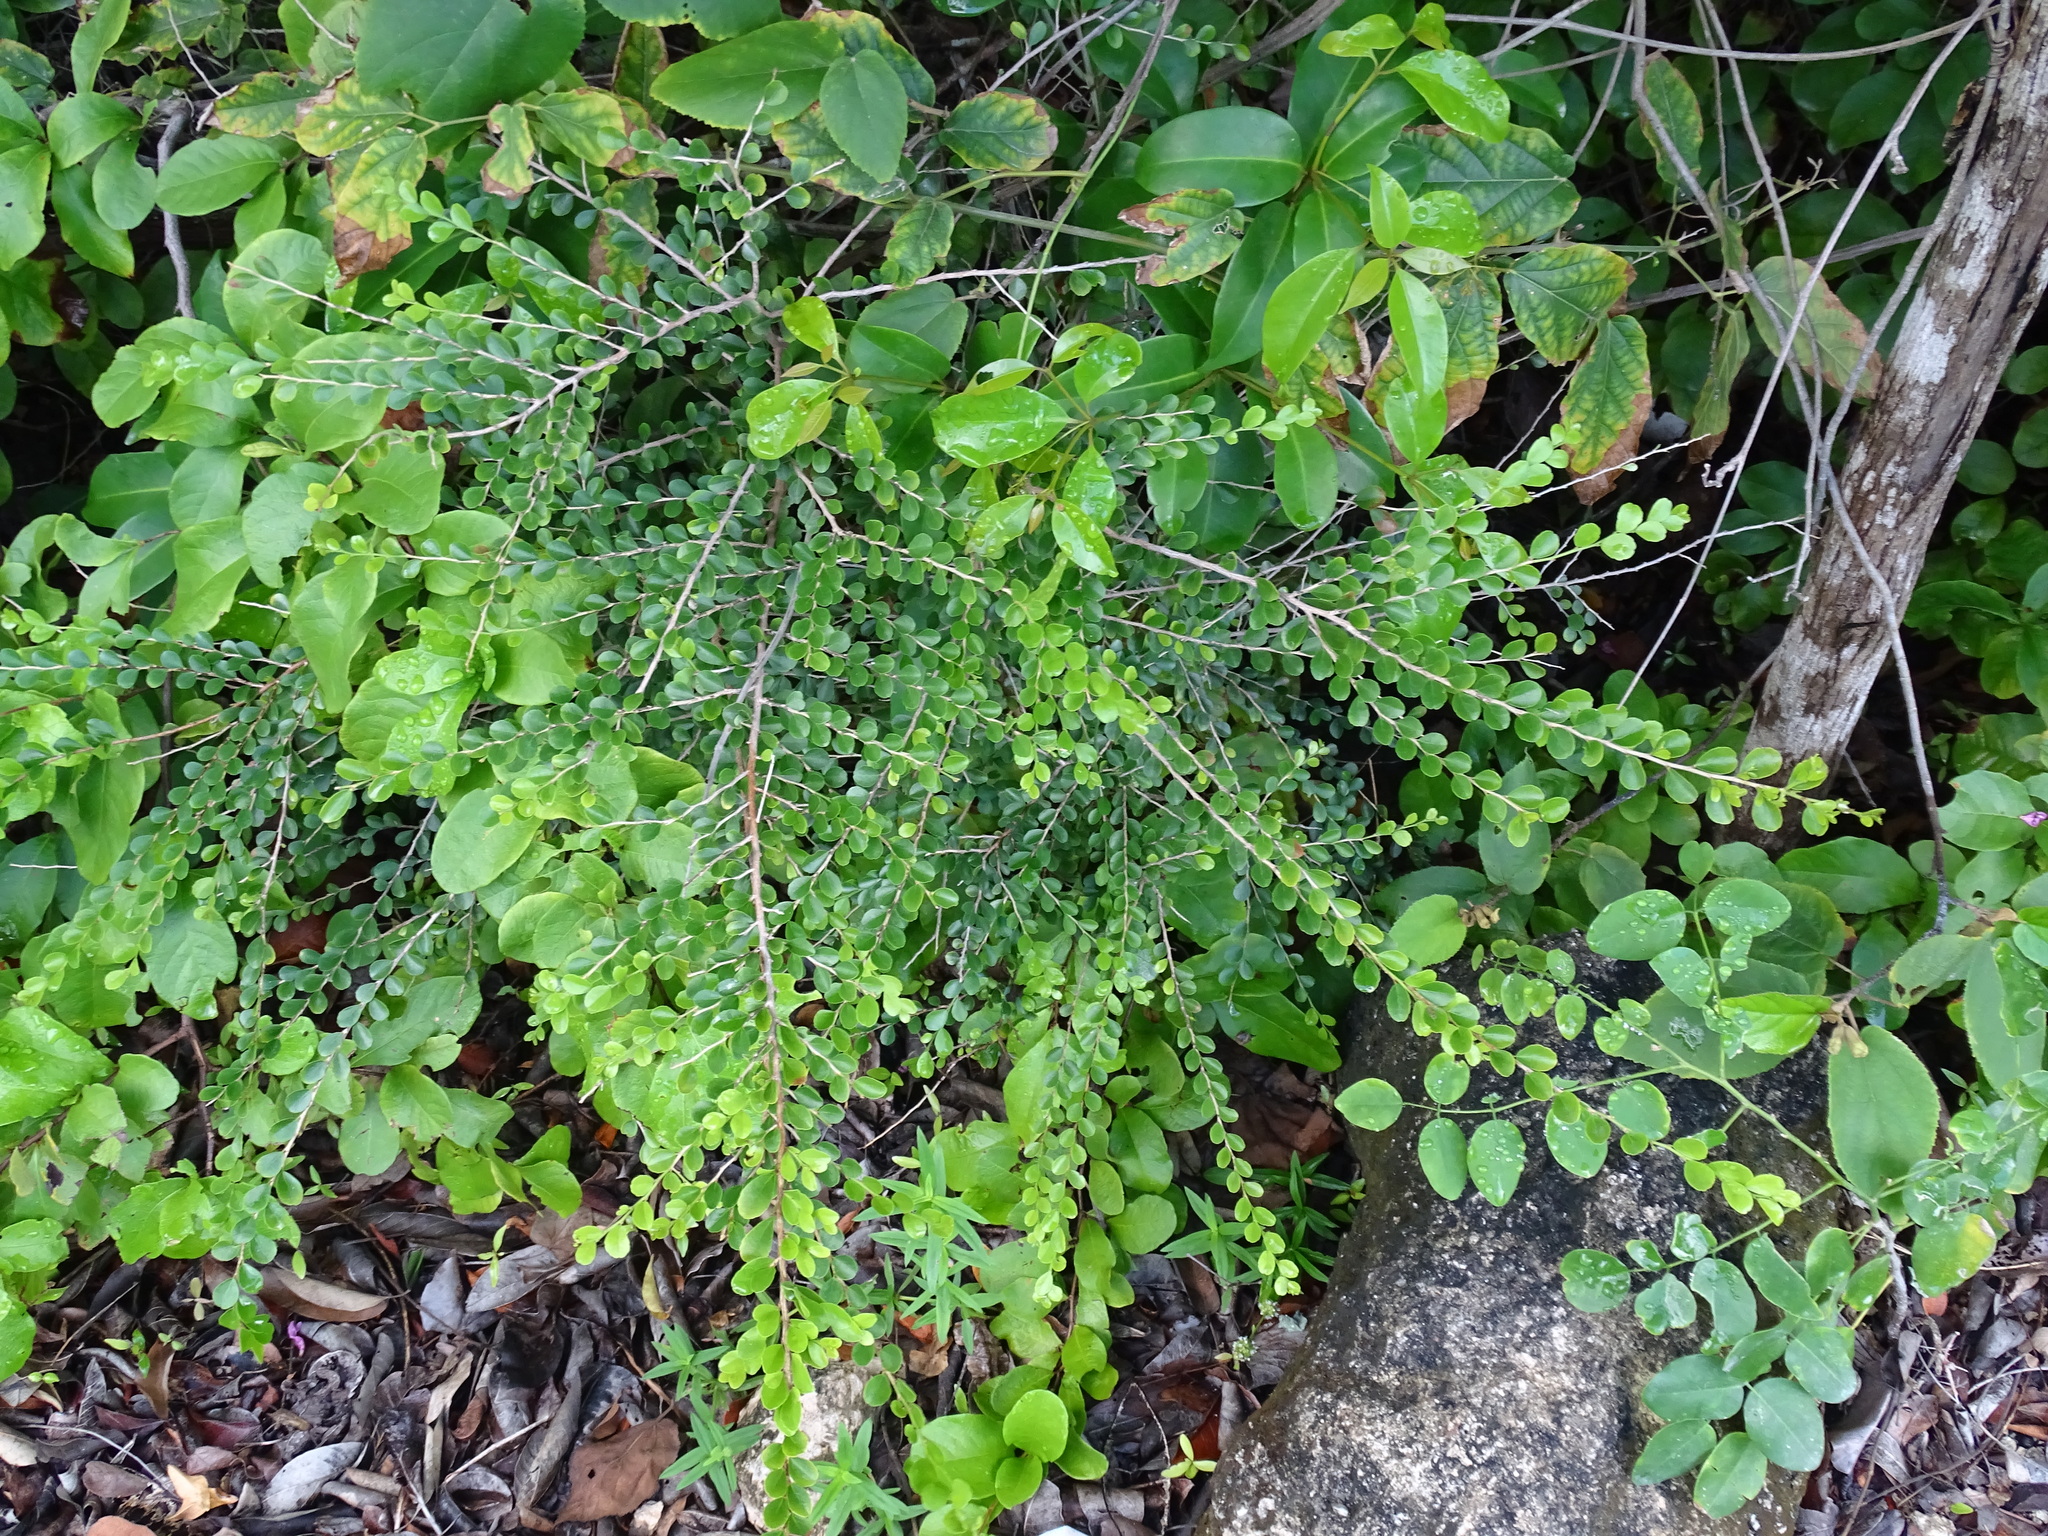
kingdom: Plantae
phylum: Tracheophyta
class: Magnoliopsida
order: Malpighiales
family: Salicaceae
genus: Casearia
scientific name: Casearia emarginata
